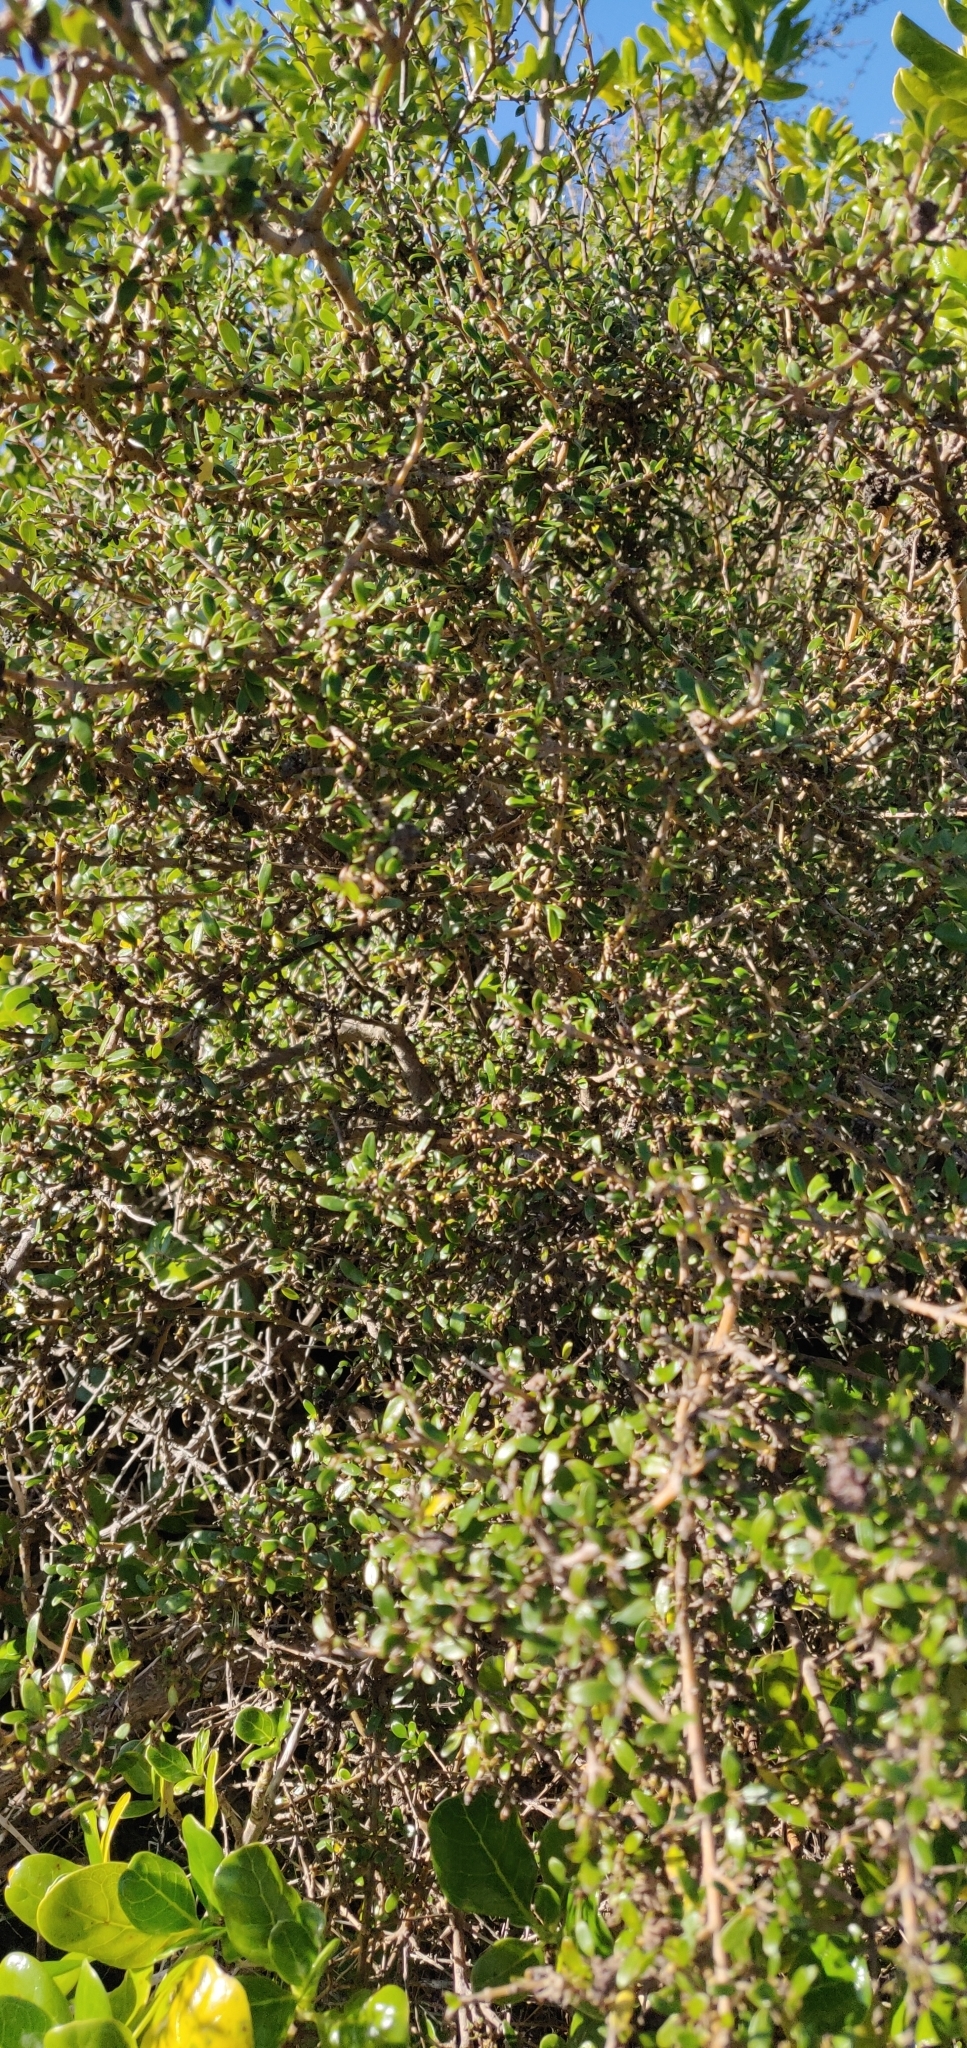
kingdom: Plantae
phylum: Tracheophyta
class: Magnoliopsida
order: Gentianales
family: Rubiaceae
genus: Coprosma
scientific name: Coprosma propinqua
